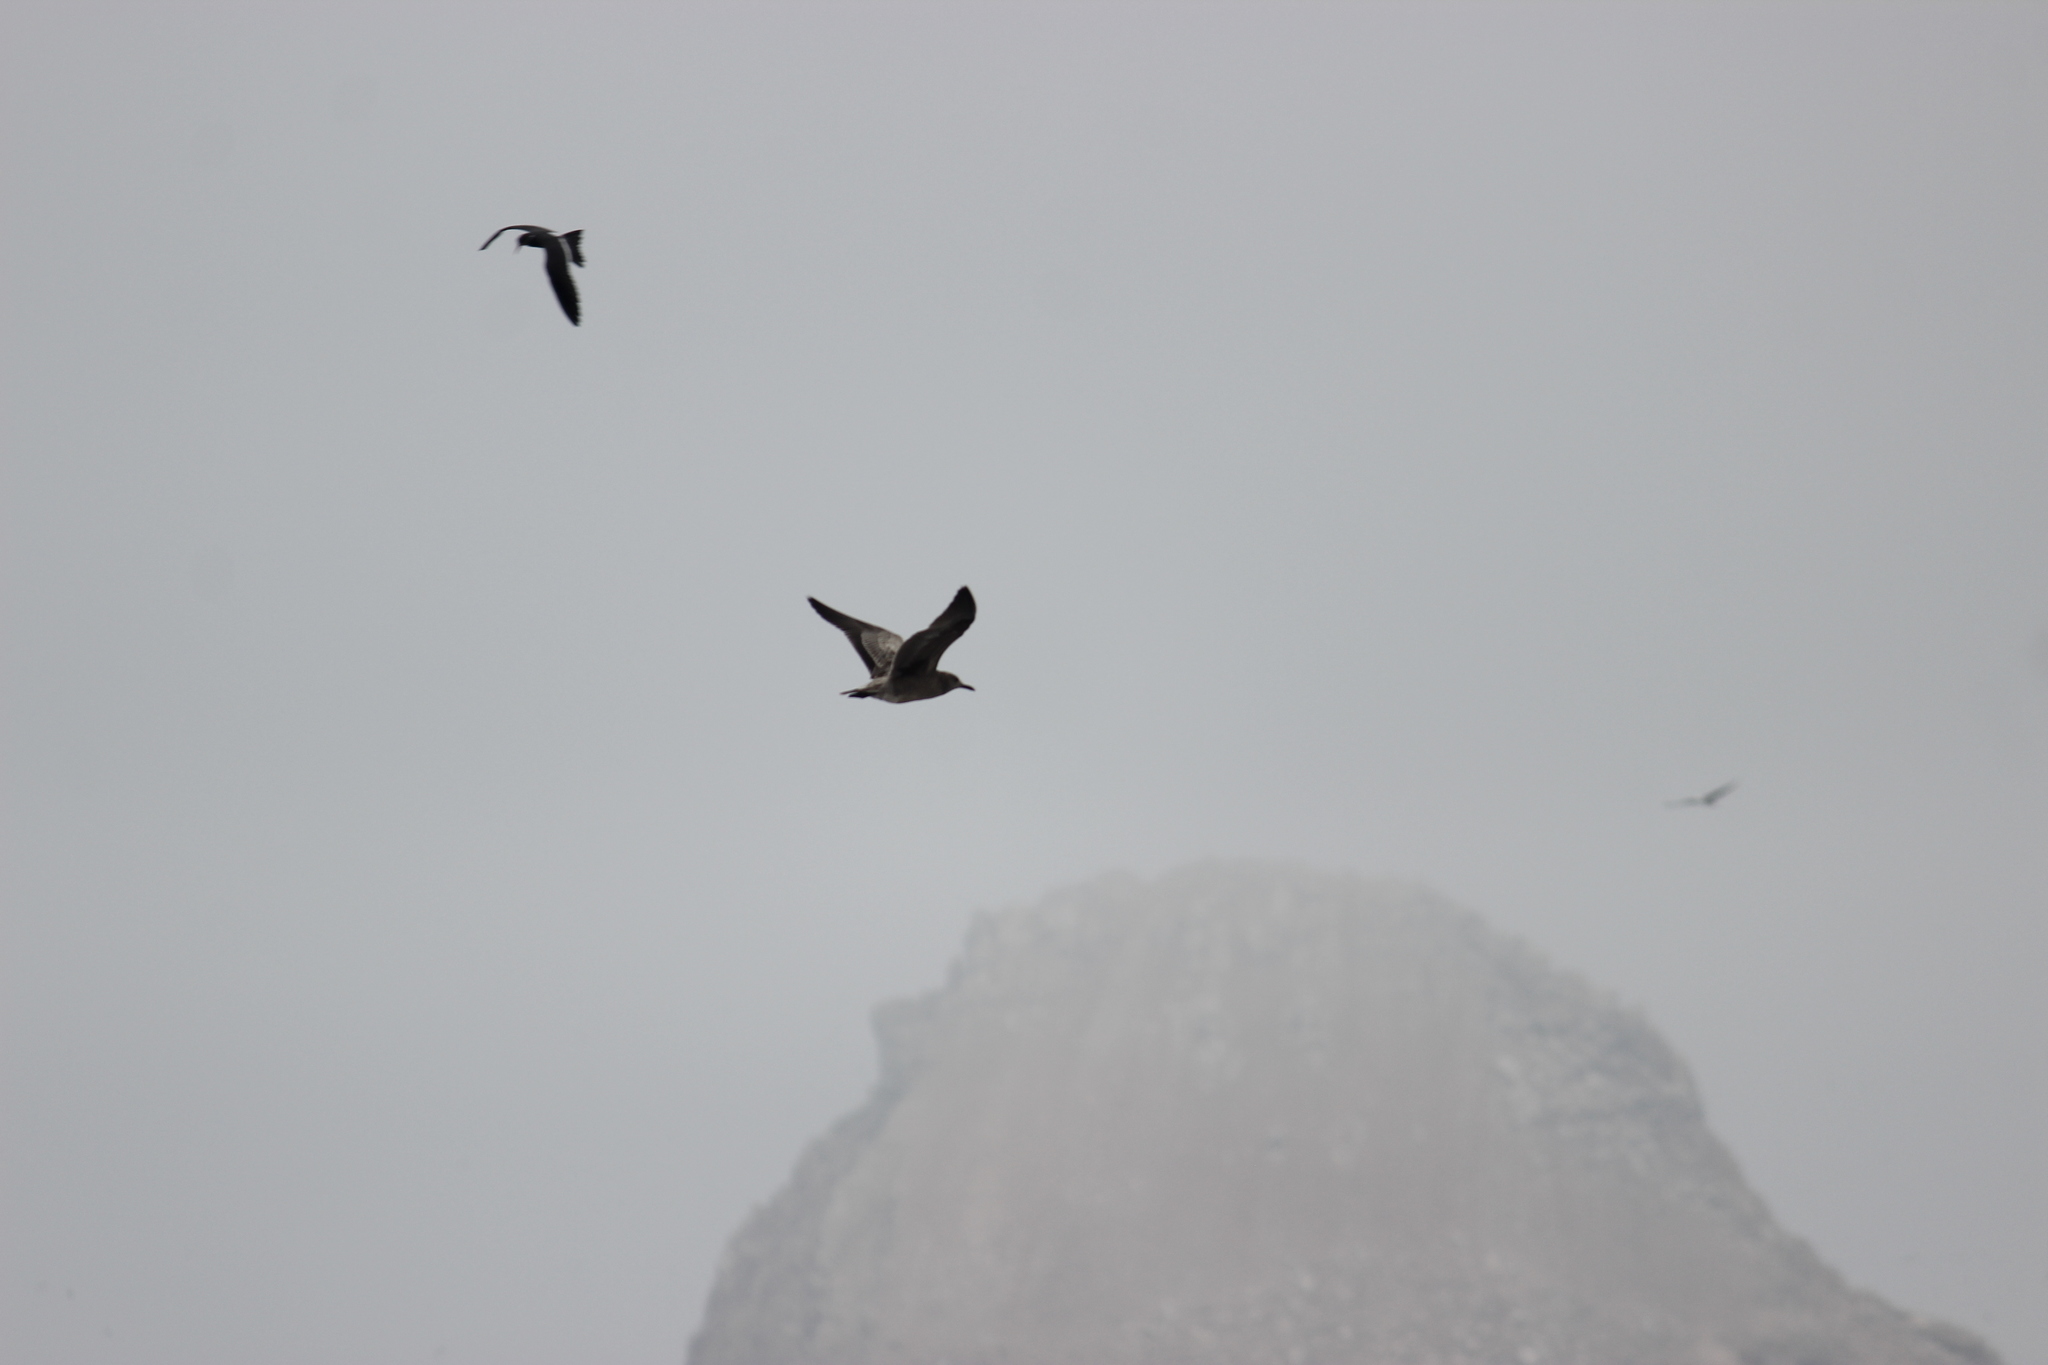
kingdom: Animalia
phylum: Chordata
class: Aves
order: Charadriiformes
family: Laridae
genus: Leucophaeus
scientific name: Leucophaeus modestus
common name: Gray gull
